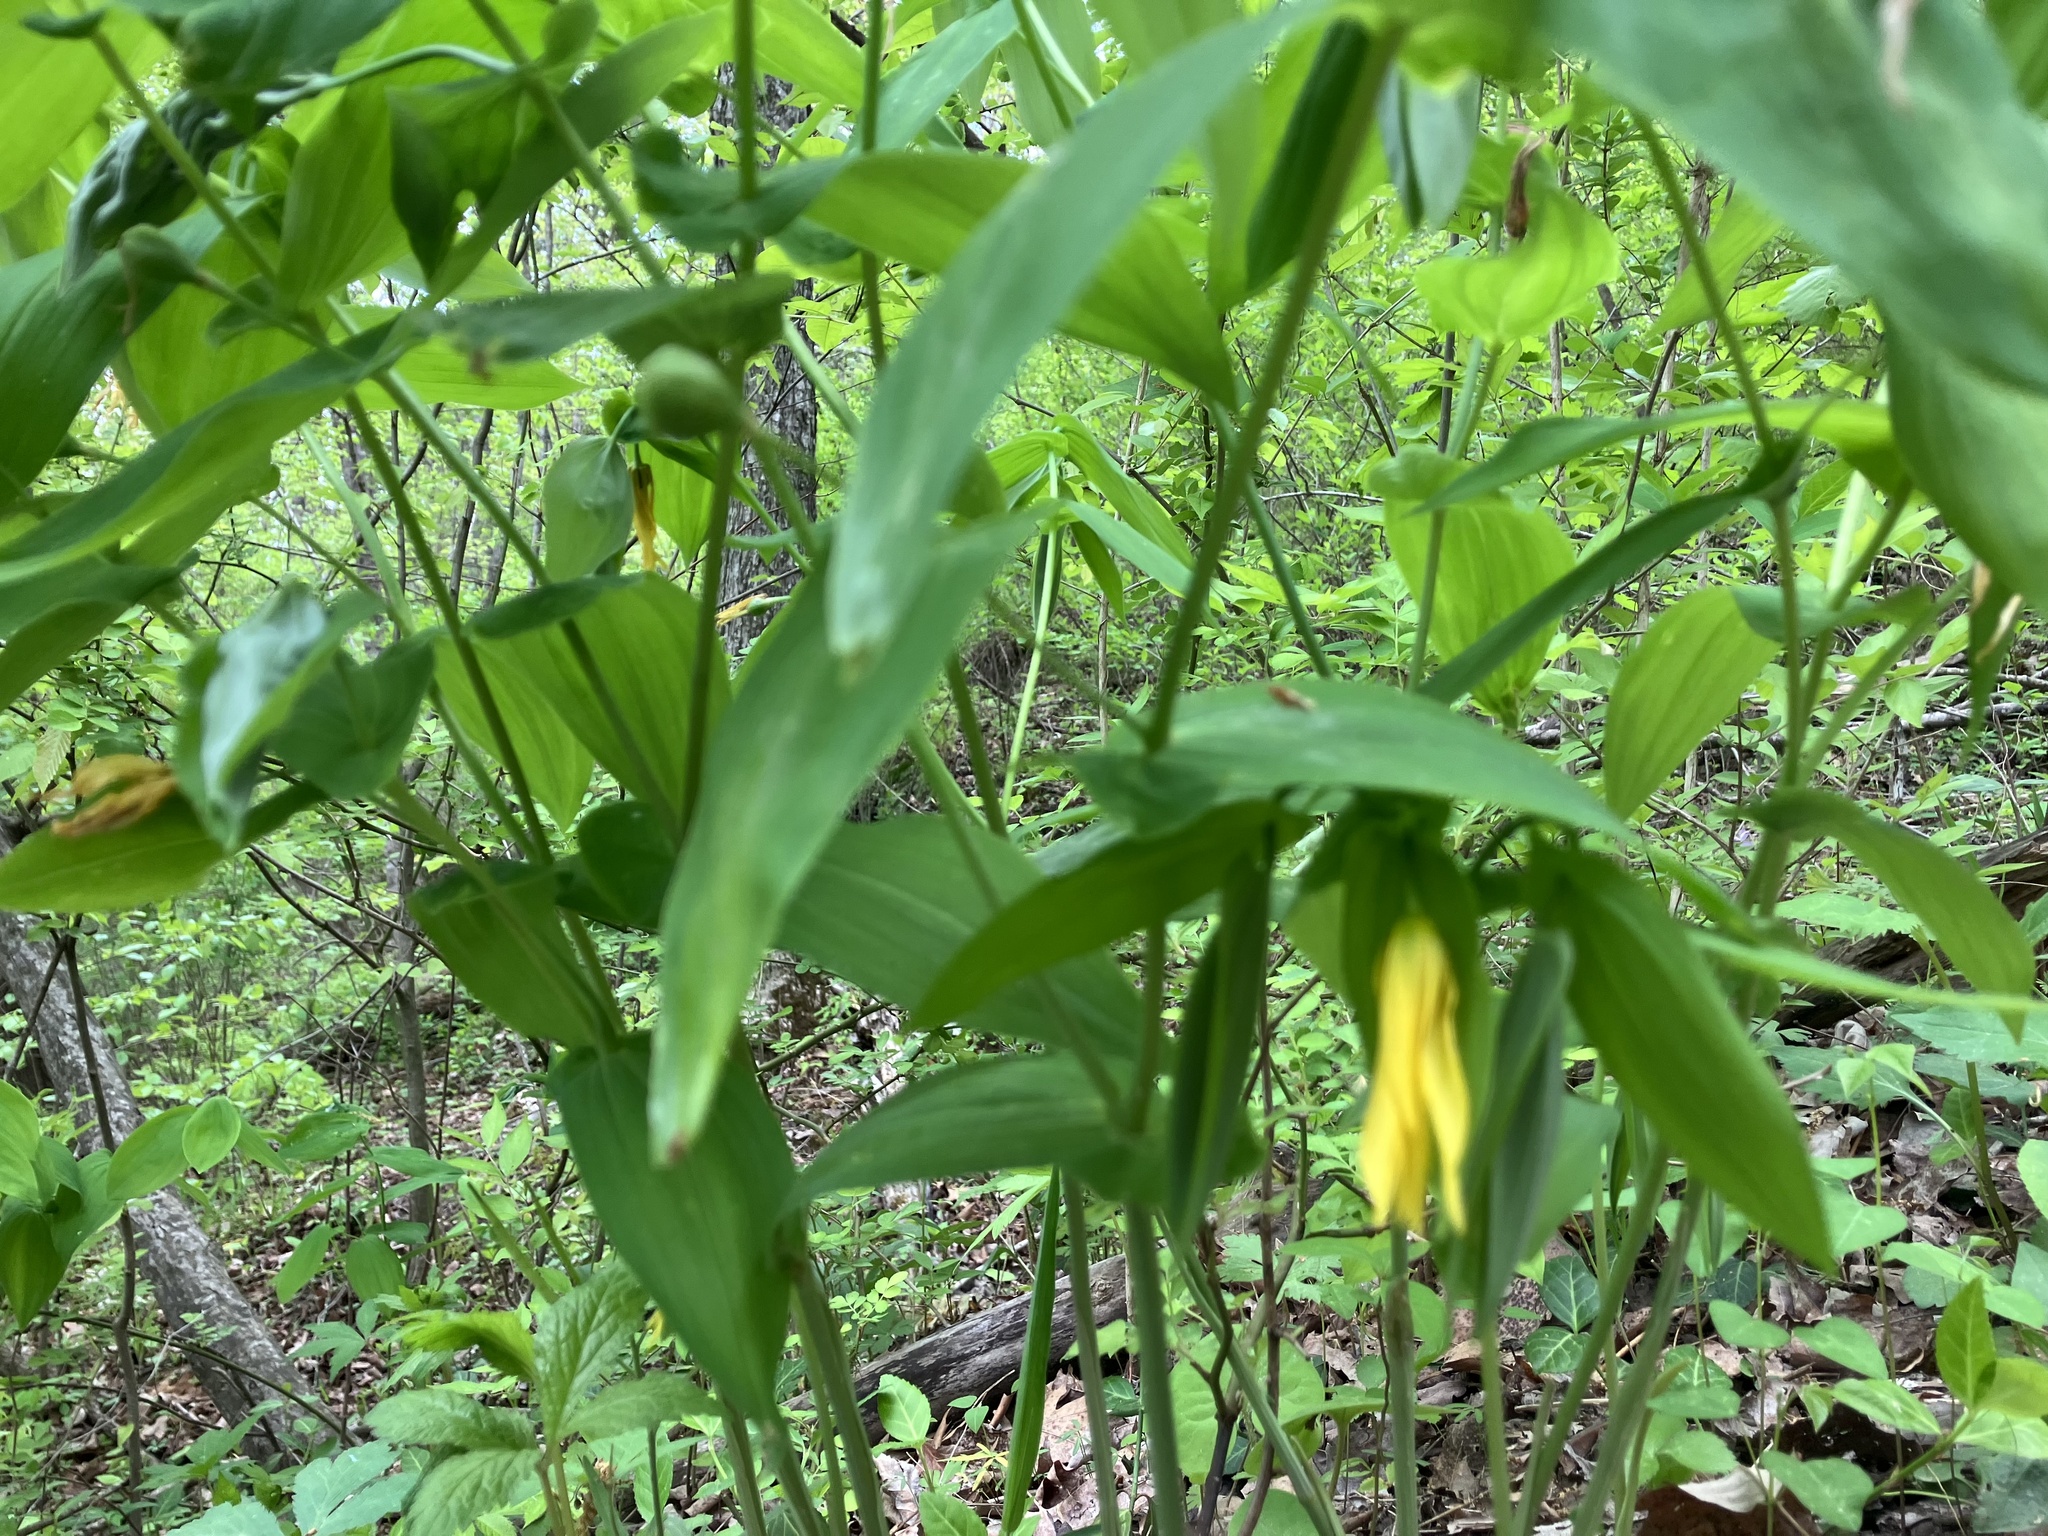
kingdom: Plantae
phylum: Tracheophyta
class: Liliopsida
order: Liliales
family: Colchicaceae
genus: Uvularia
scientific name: Uvularia grandiflora
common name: Bellwort
